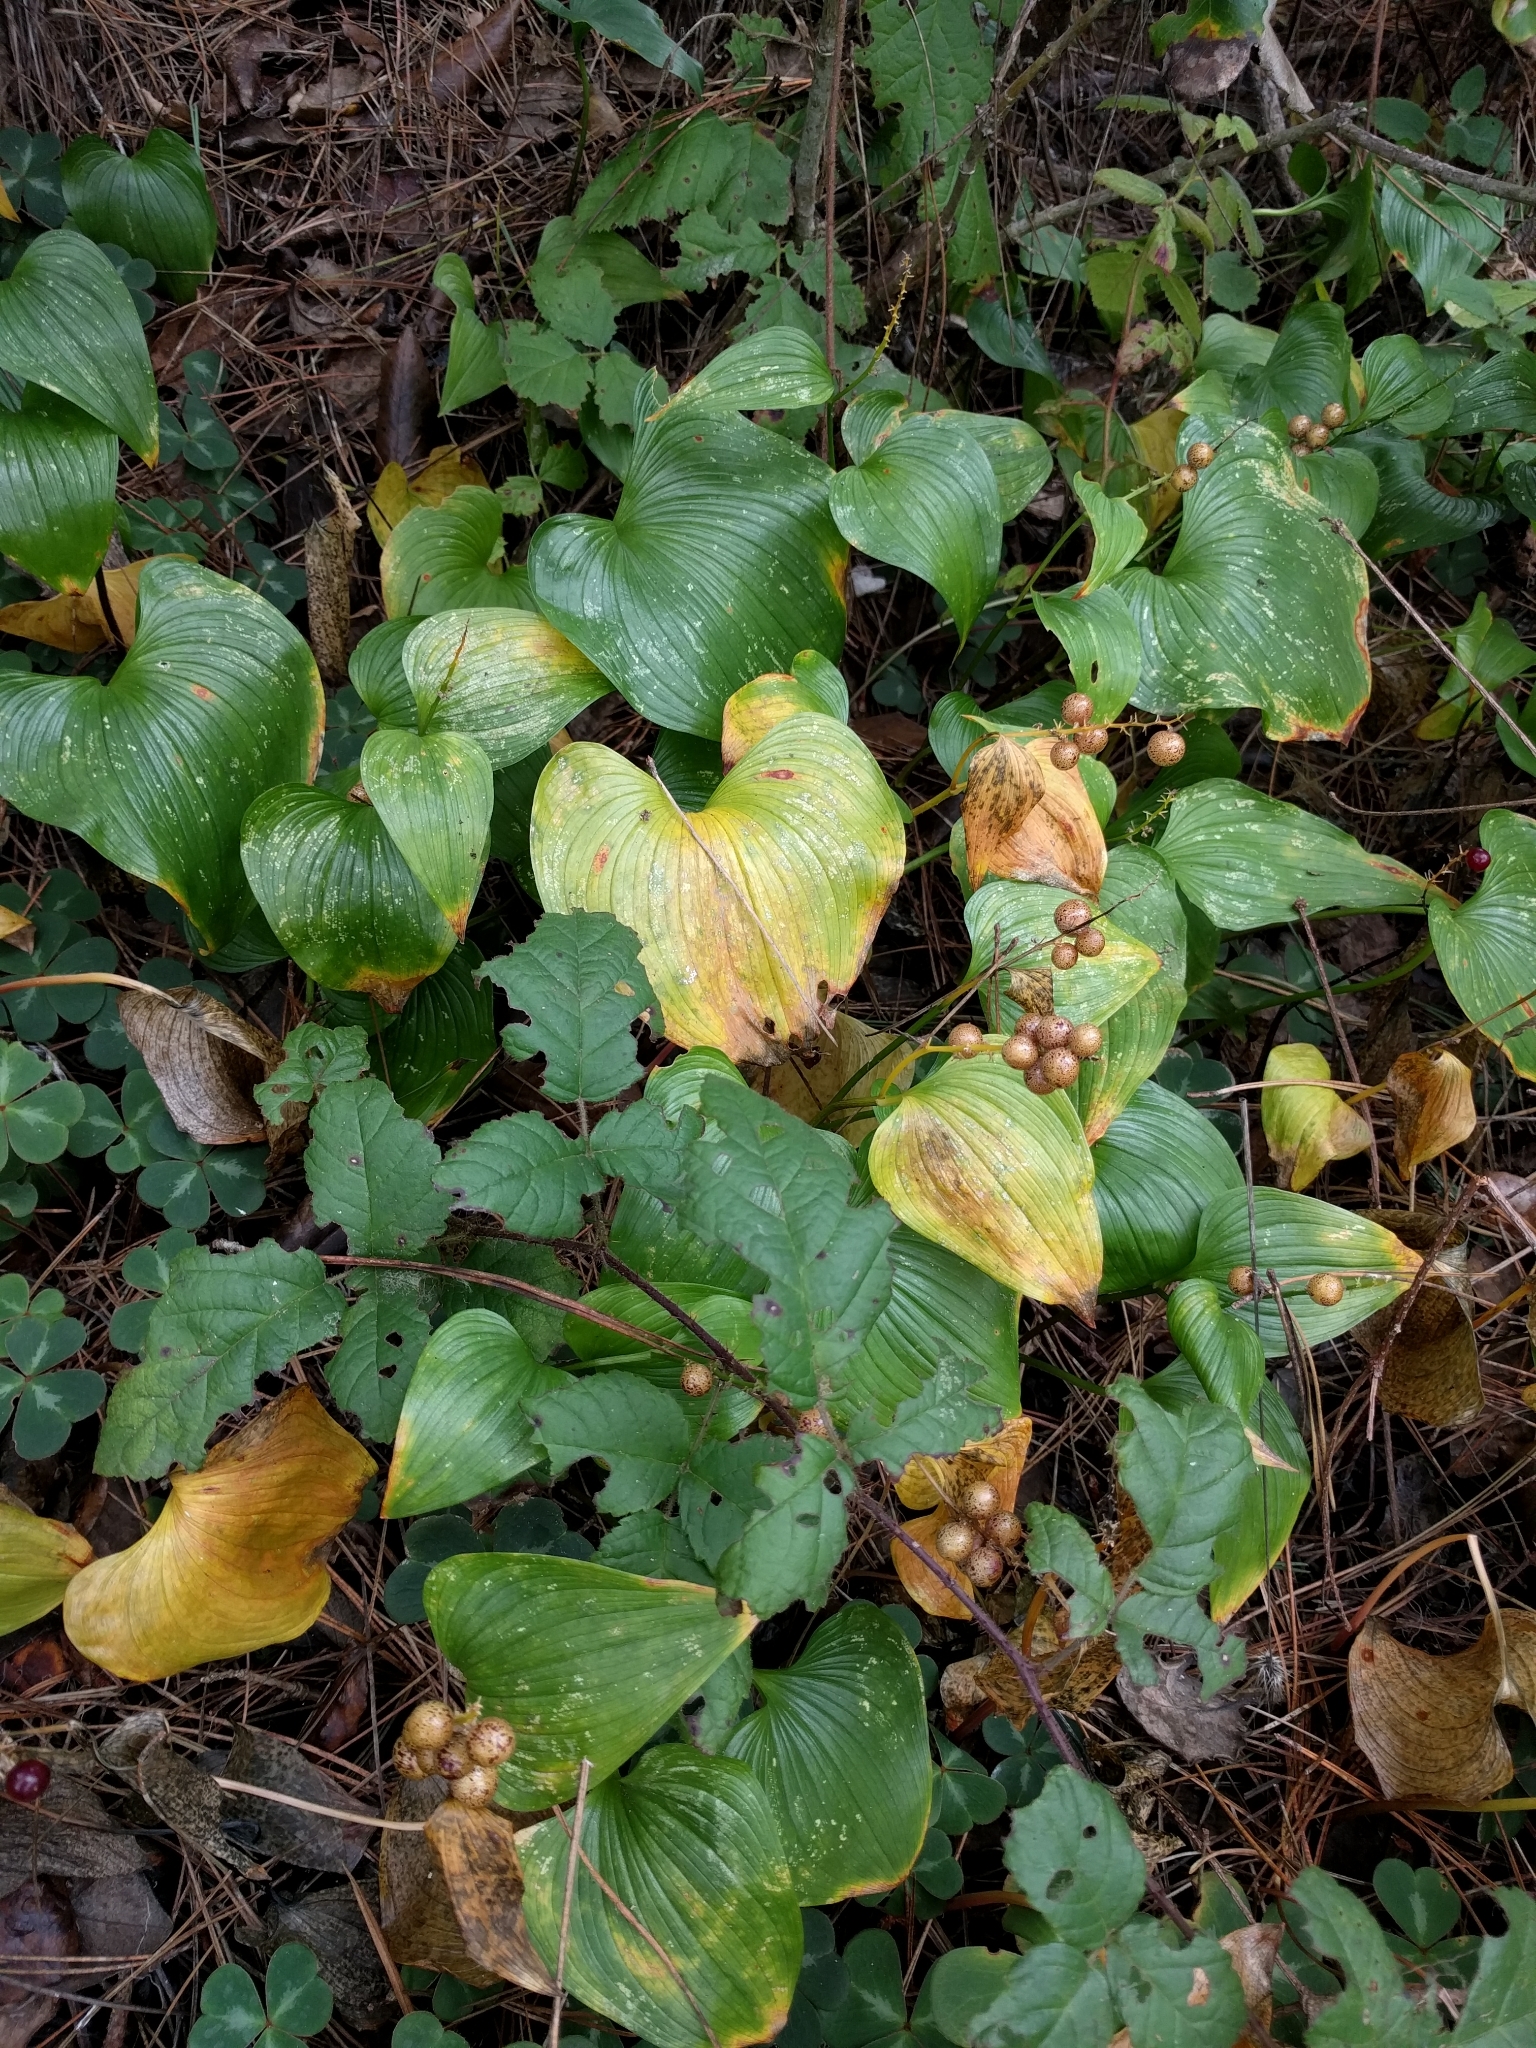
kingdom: Plantae
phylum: Tracheophyta
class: Liliopsida
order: Asparagales
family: Asparagaceae
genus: Maianthemum
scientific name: Maianthemum dilatatum
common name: False lily-of-the-valley
